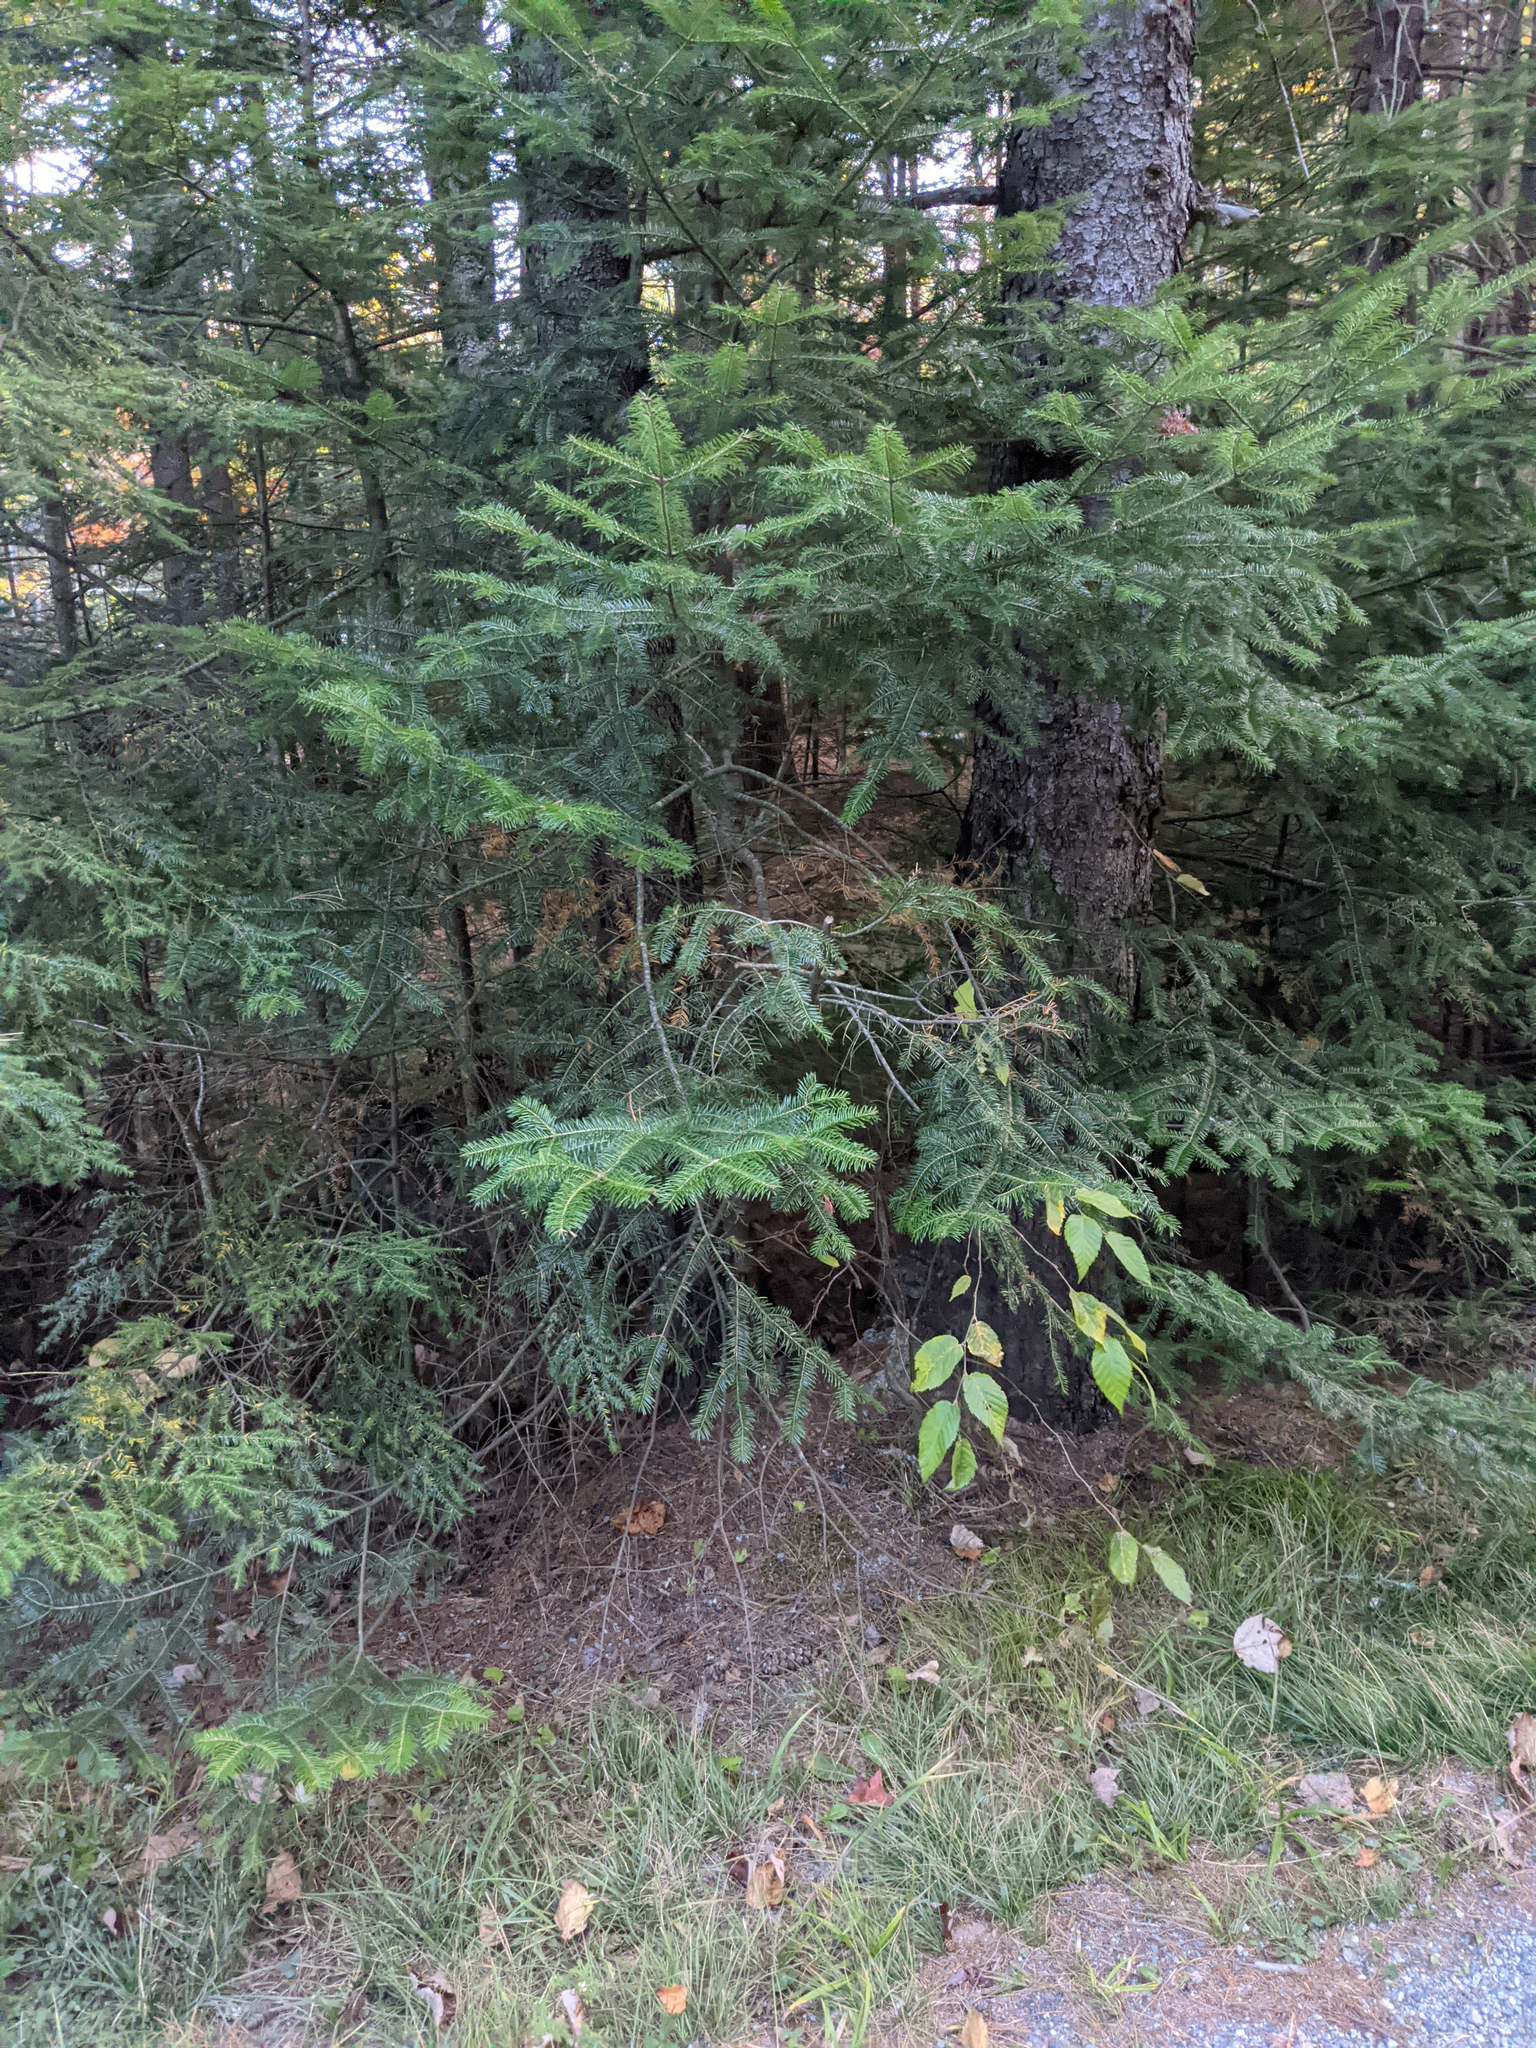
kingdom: Plantae
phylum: Tracheophyta
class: Pinopsida
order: Pinales
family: Pinaceae
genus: Abies
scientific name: Abies balsamea
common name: Balsam fir
